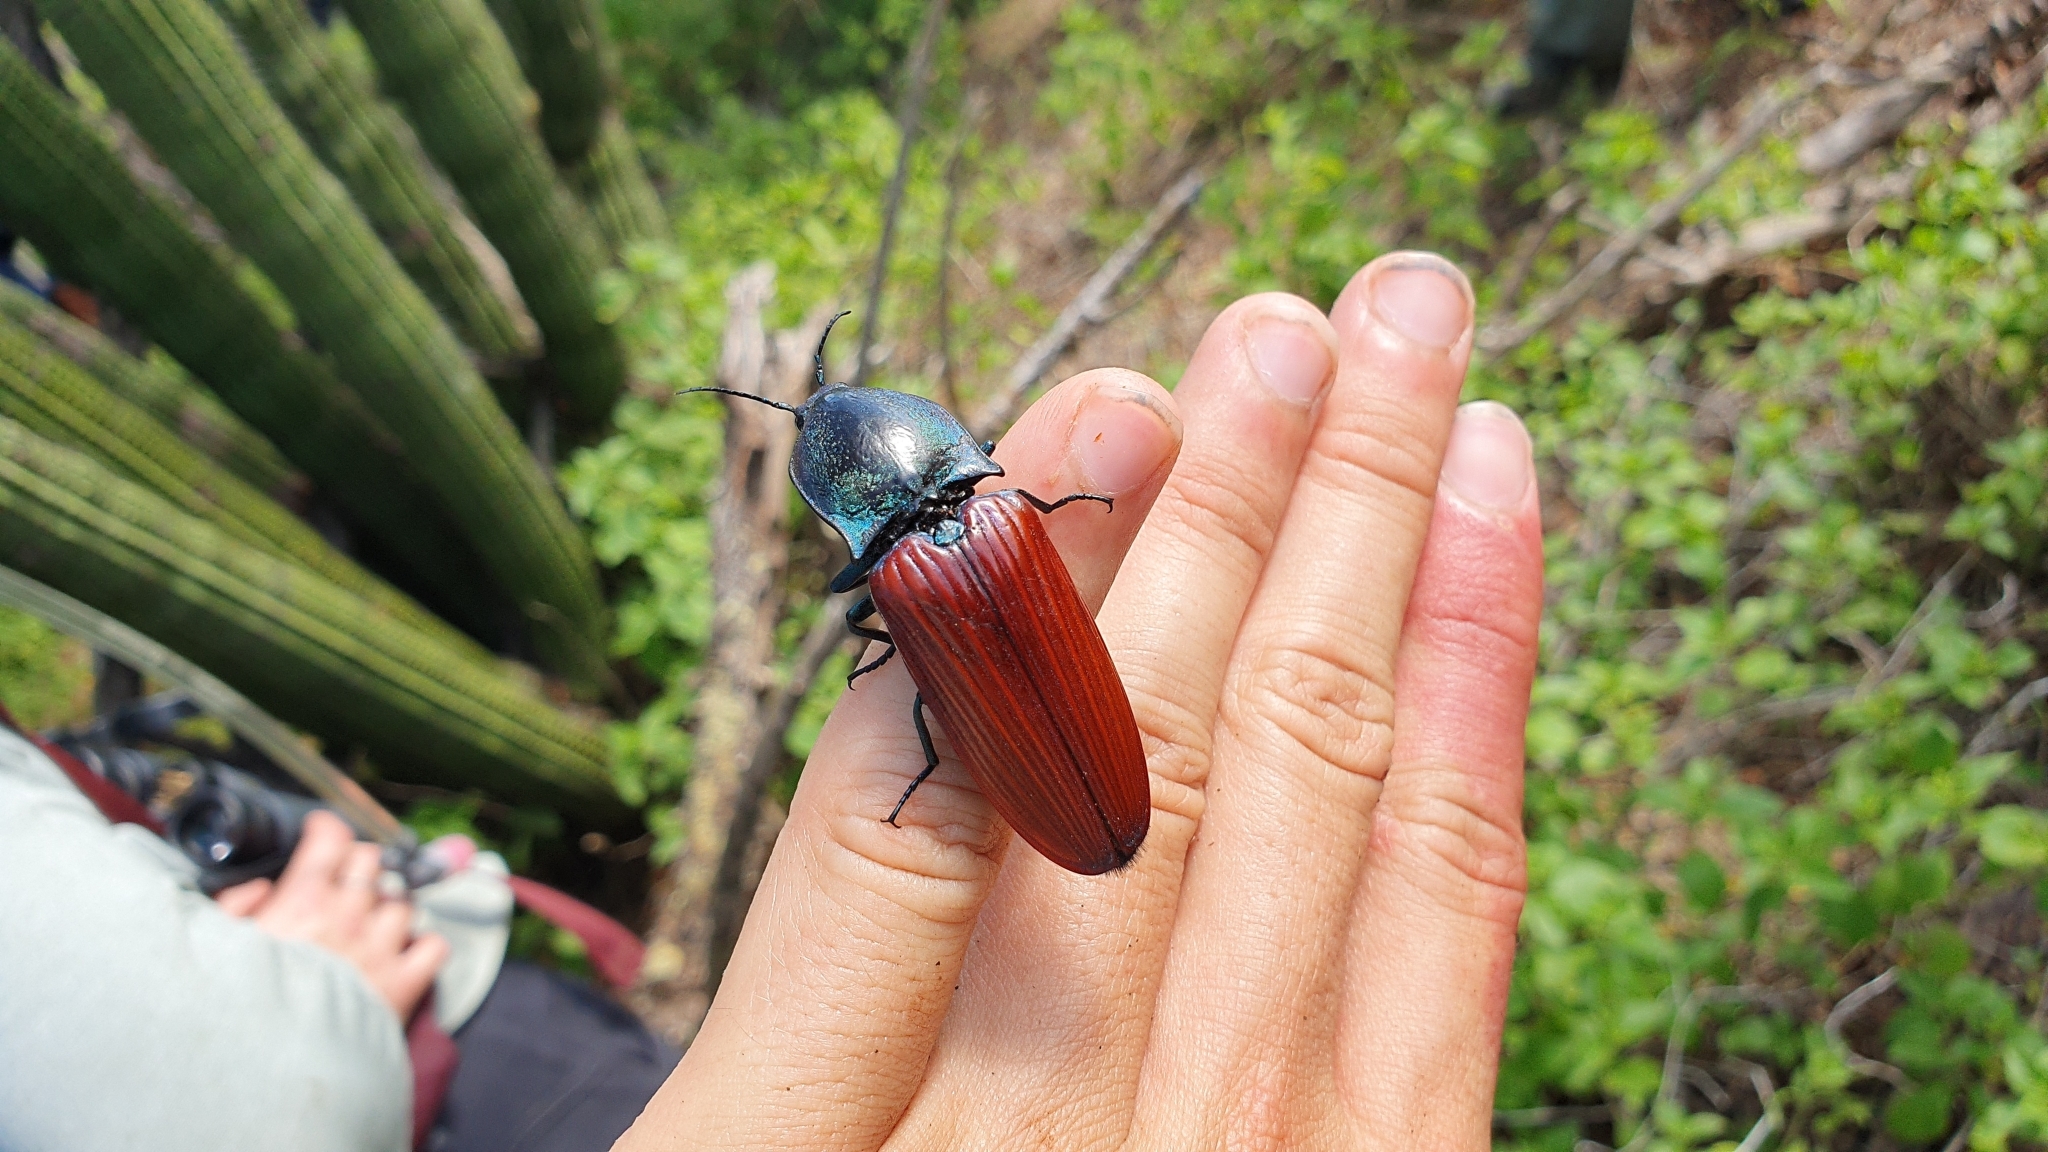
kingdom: Animalia
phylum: Arthropoda
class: Insecta
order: Coleoptera
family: Elateridae
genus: Chalcolepidius
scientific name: Chalcolepidius
